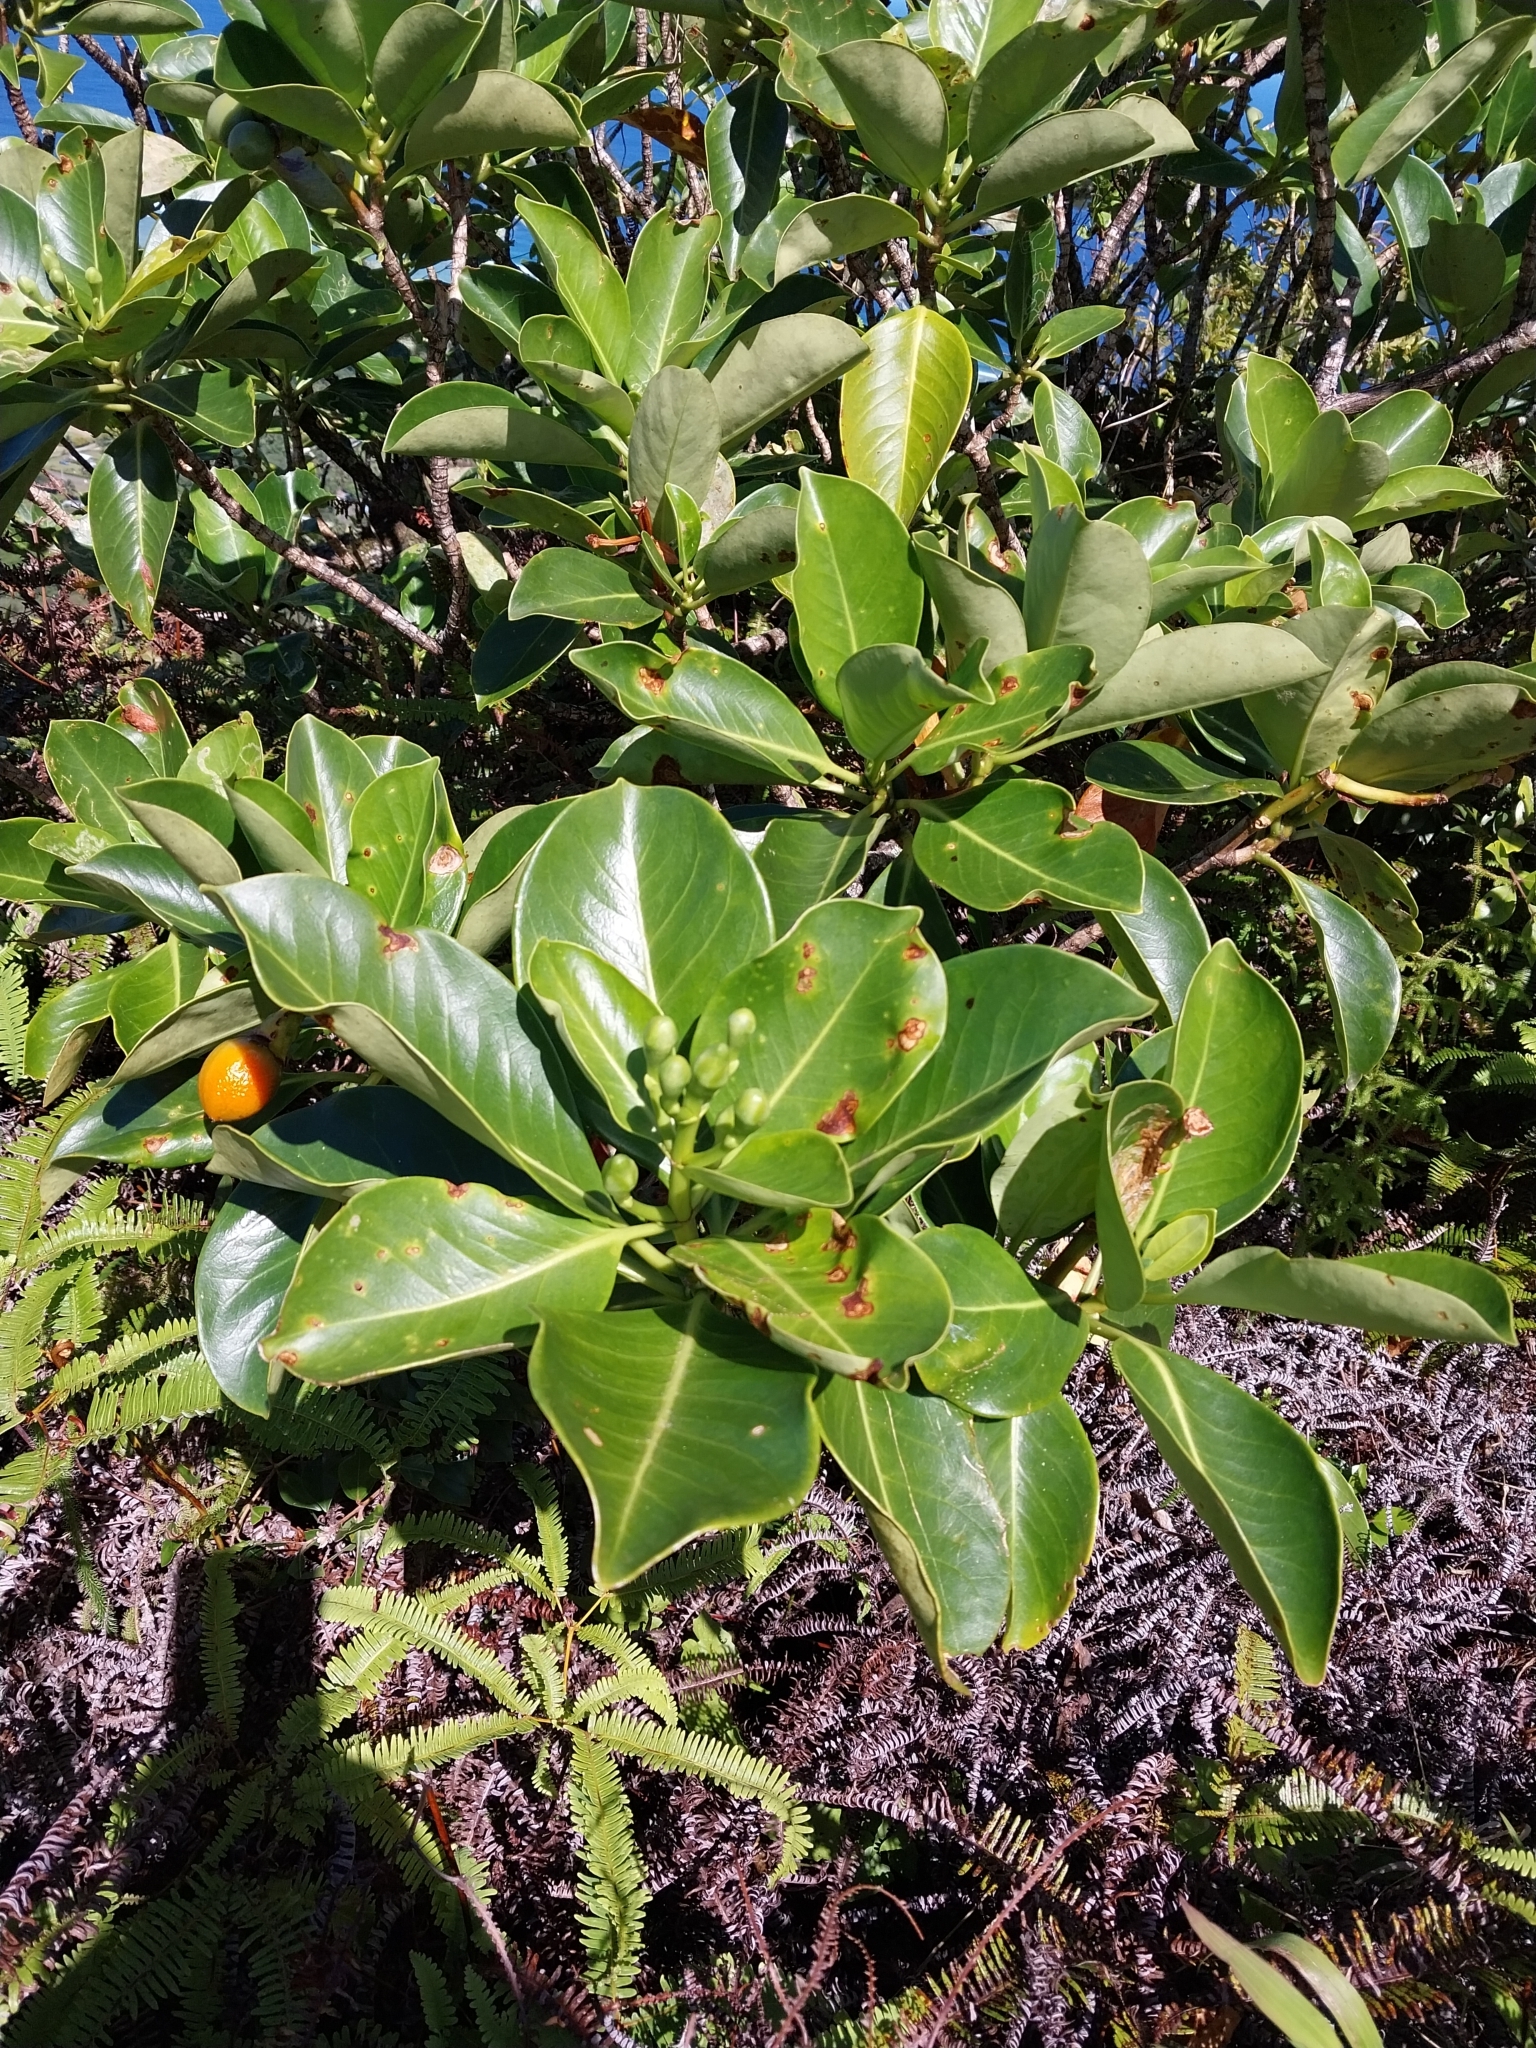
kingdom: Plantae
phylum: Tracheophyta
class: Magnoliopsida
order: Gentianales
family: Gentianaceae
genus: Fagraea
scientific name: Fagraea berteroana
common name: Cape jitta
